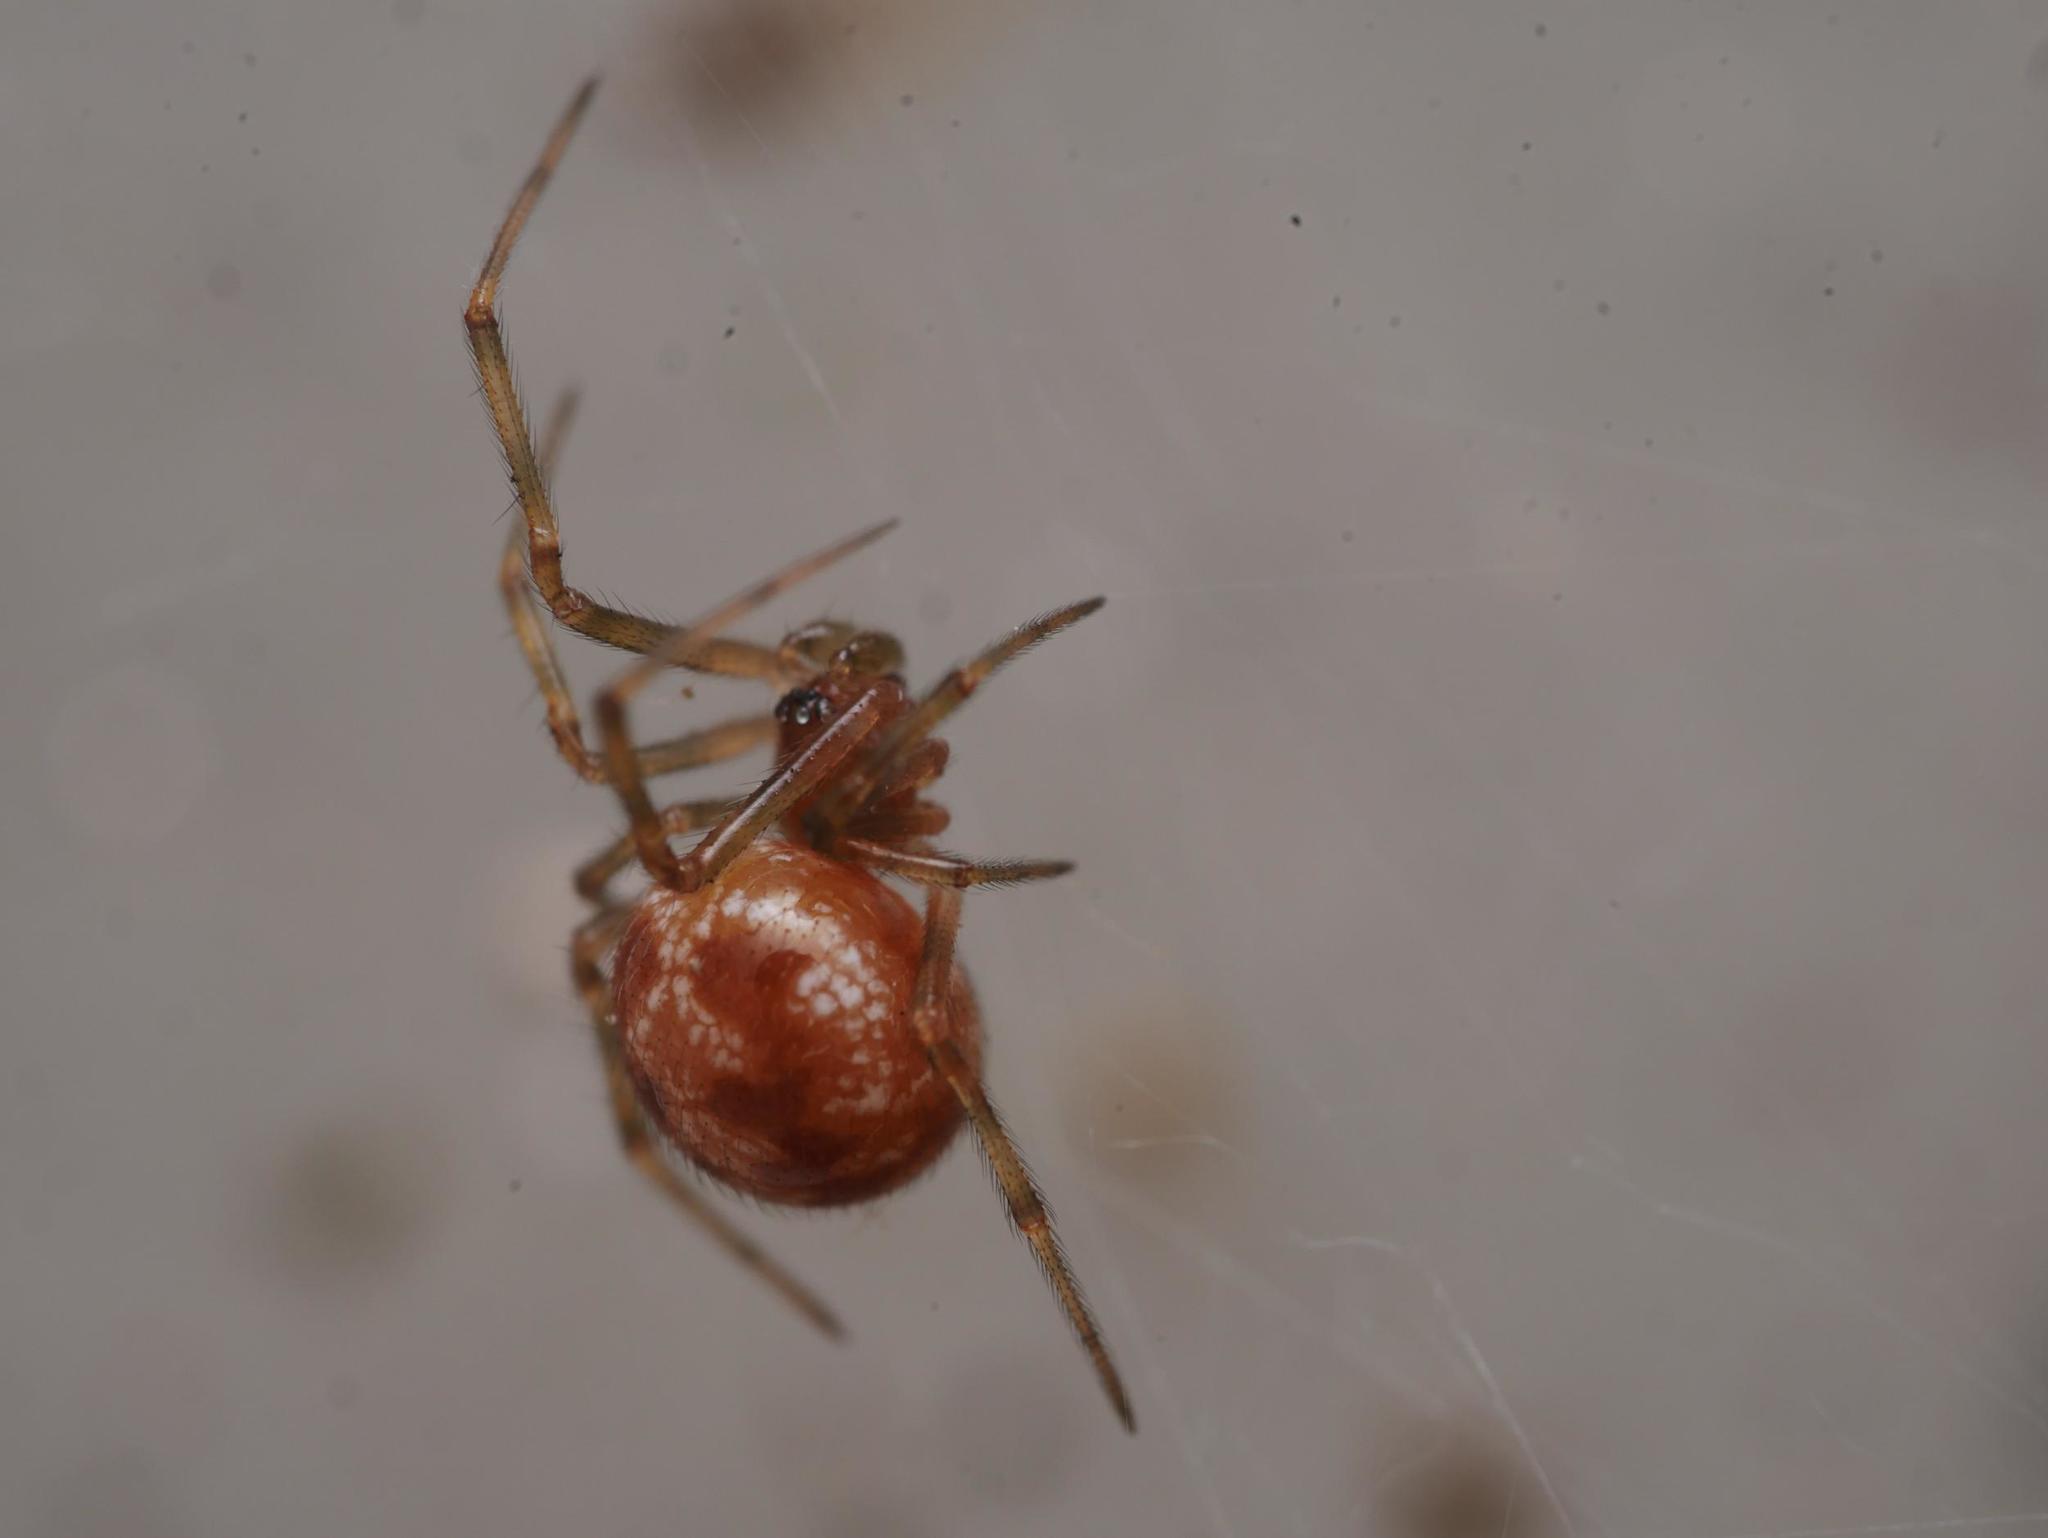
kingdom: Animalia
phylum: Arthropoda
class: Arachnida
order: Araneae
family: Theridiidae
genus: Steatoda
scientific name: Steatoda triangulosa
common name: Triangulate bud spider
